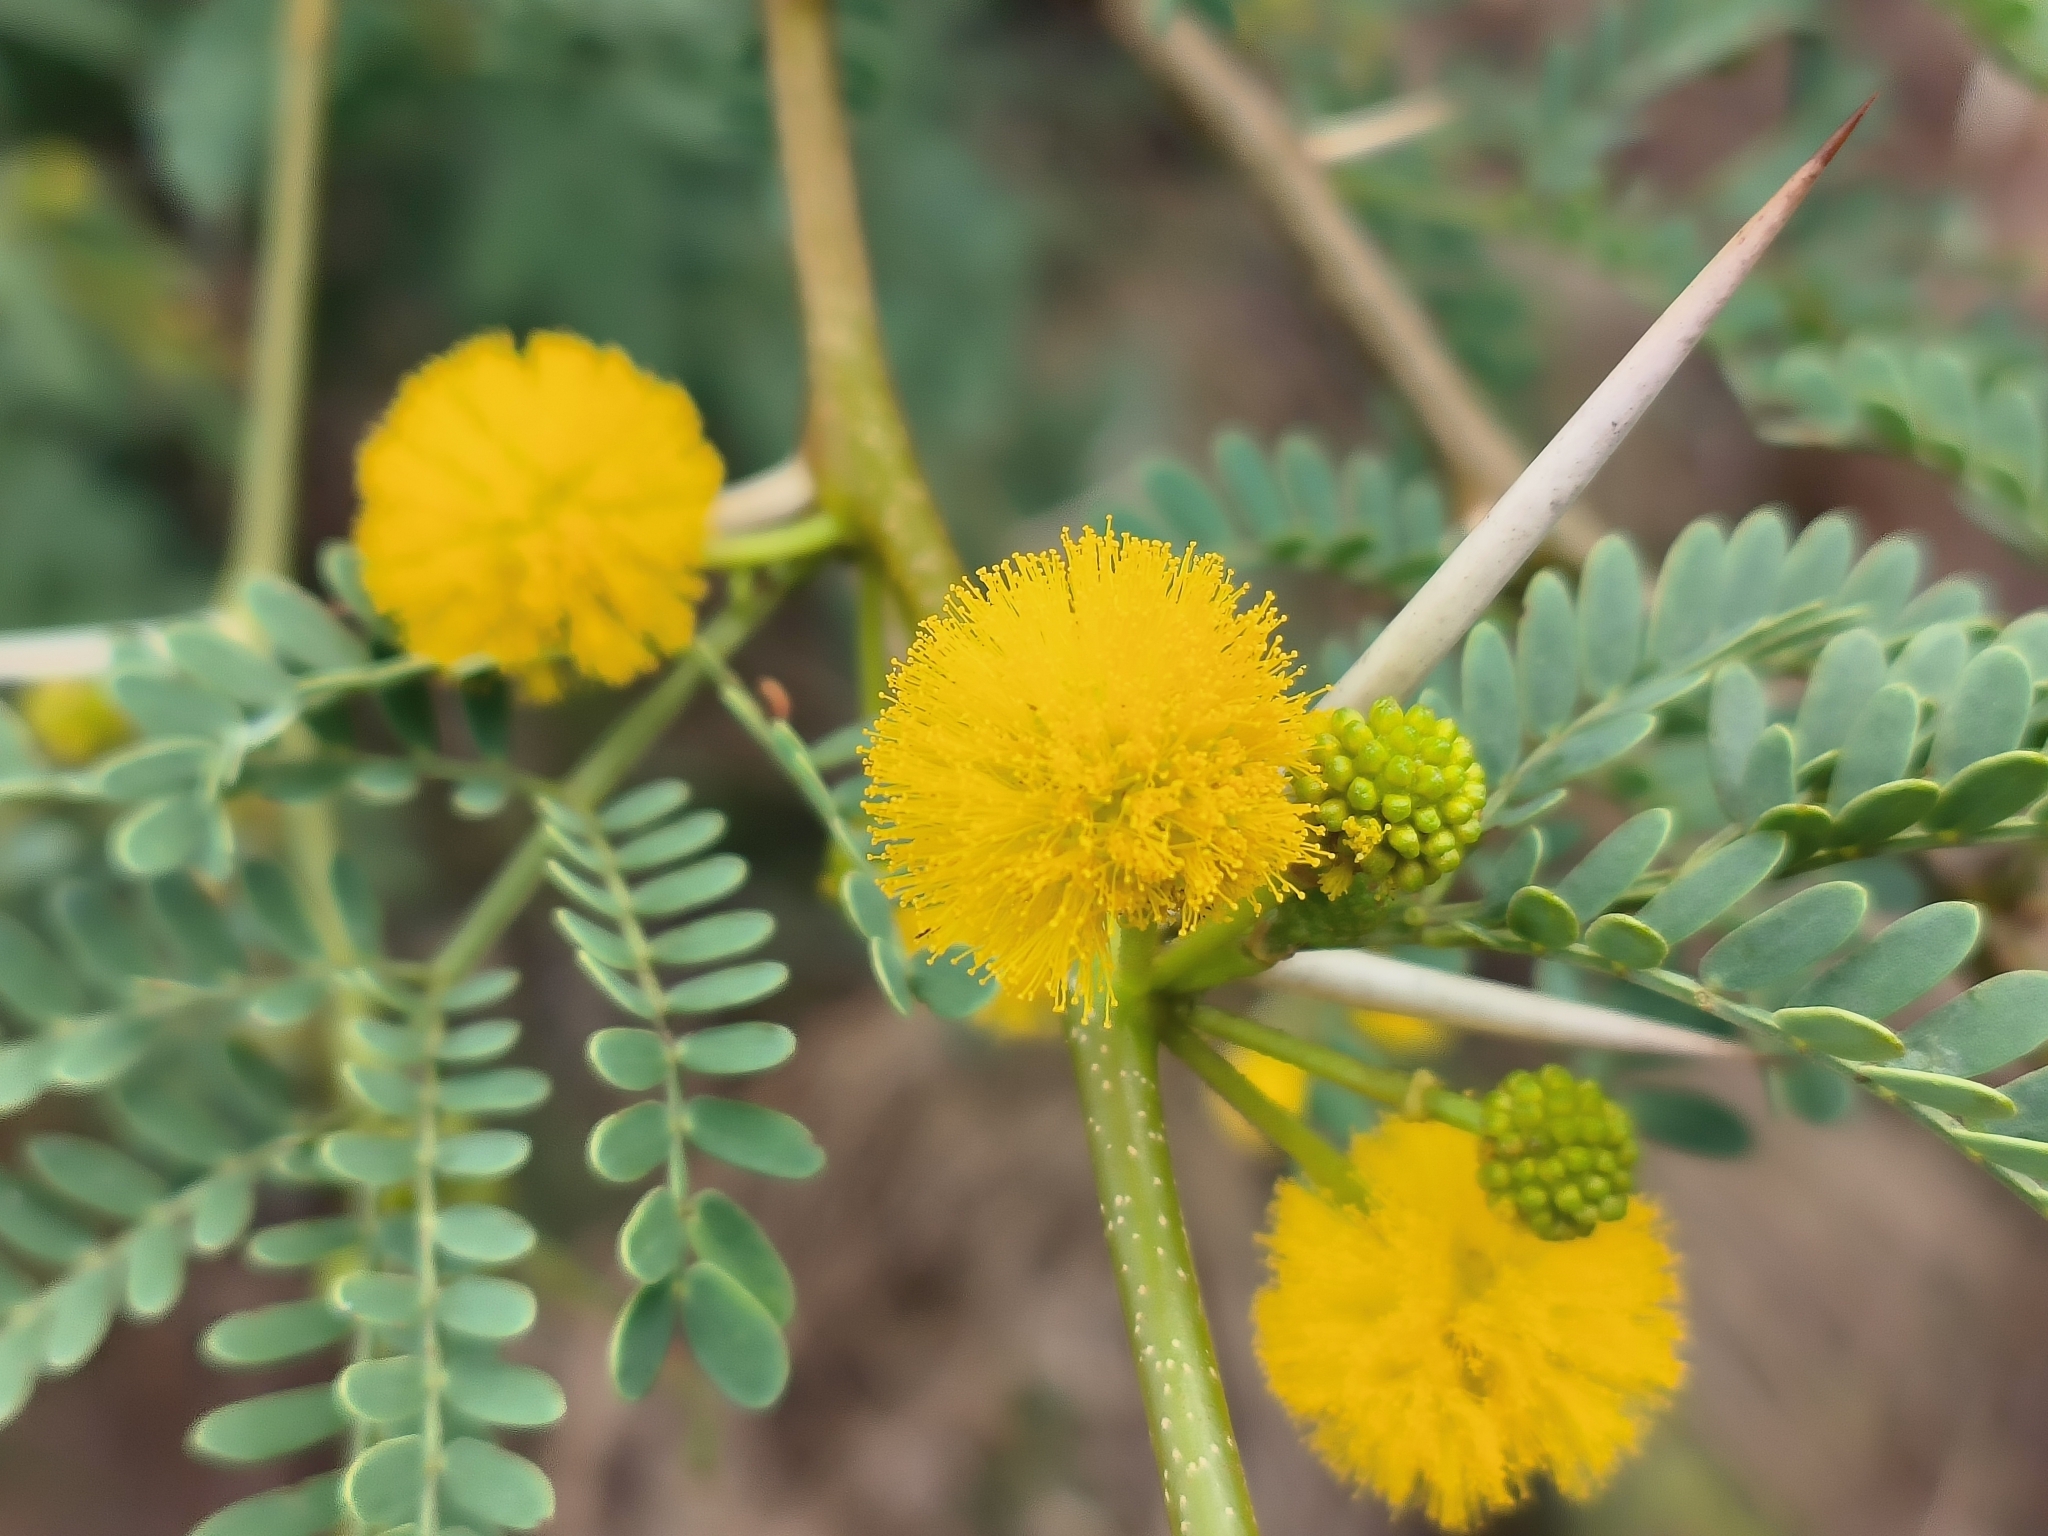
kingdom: Plantae
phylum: Tracheophyta
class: Magnoliopsida
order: Fabales
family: Fabaceae
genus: Vachellia
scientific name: Vachellia karroo
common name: Sweet thorn
